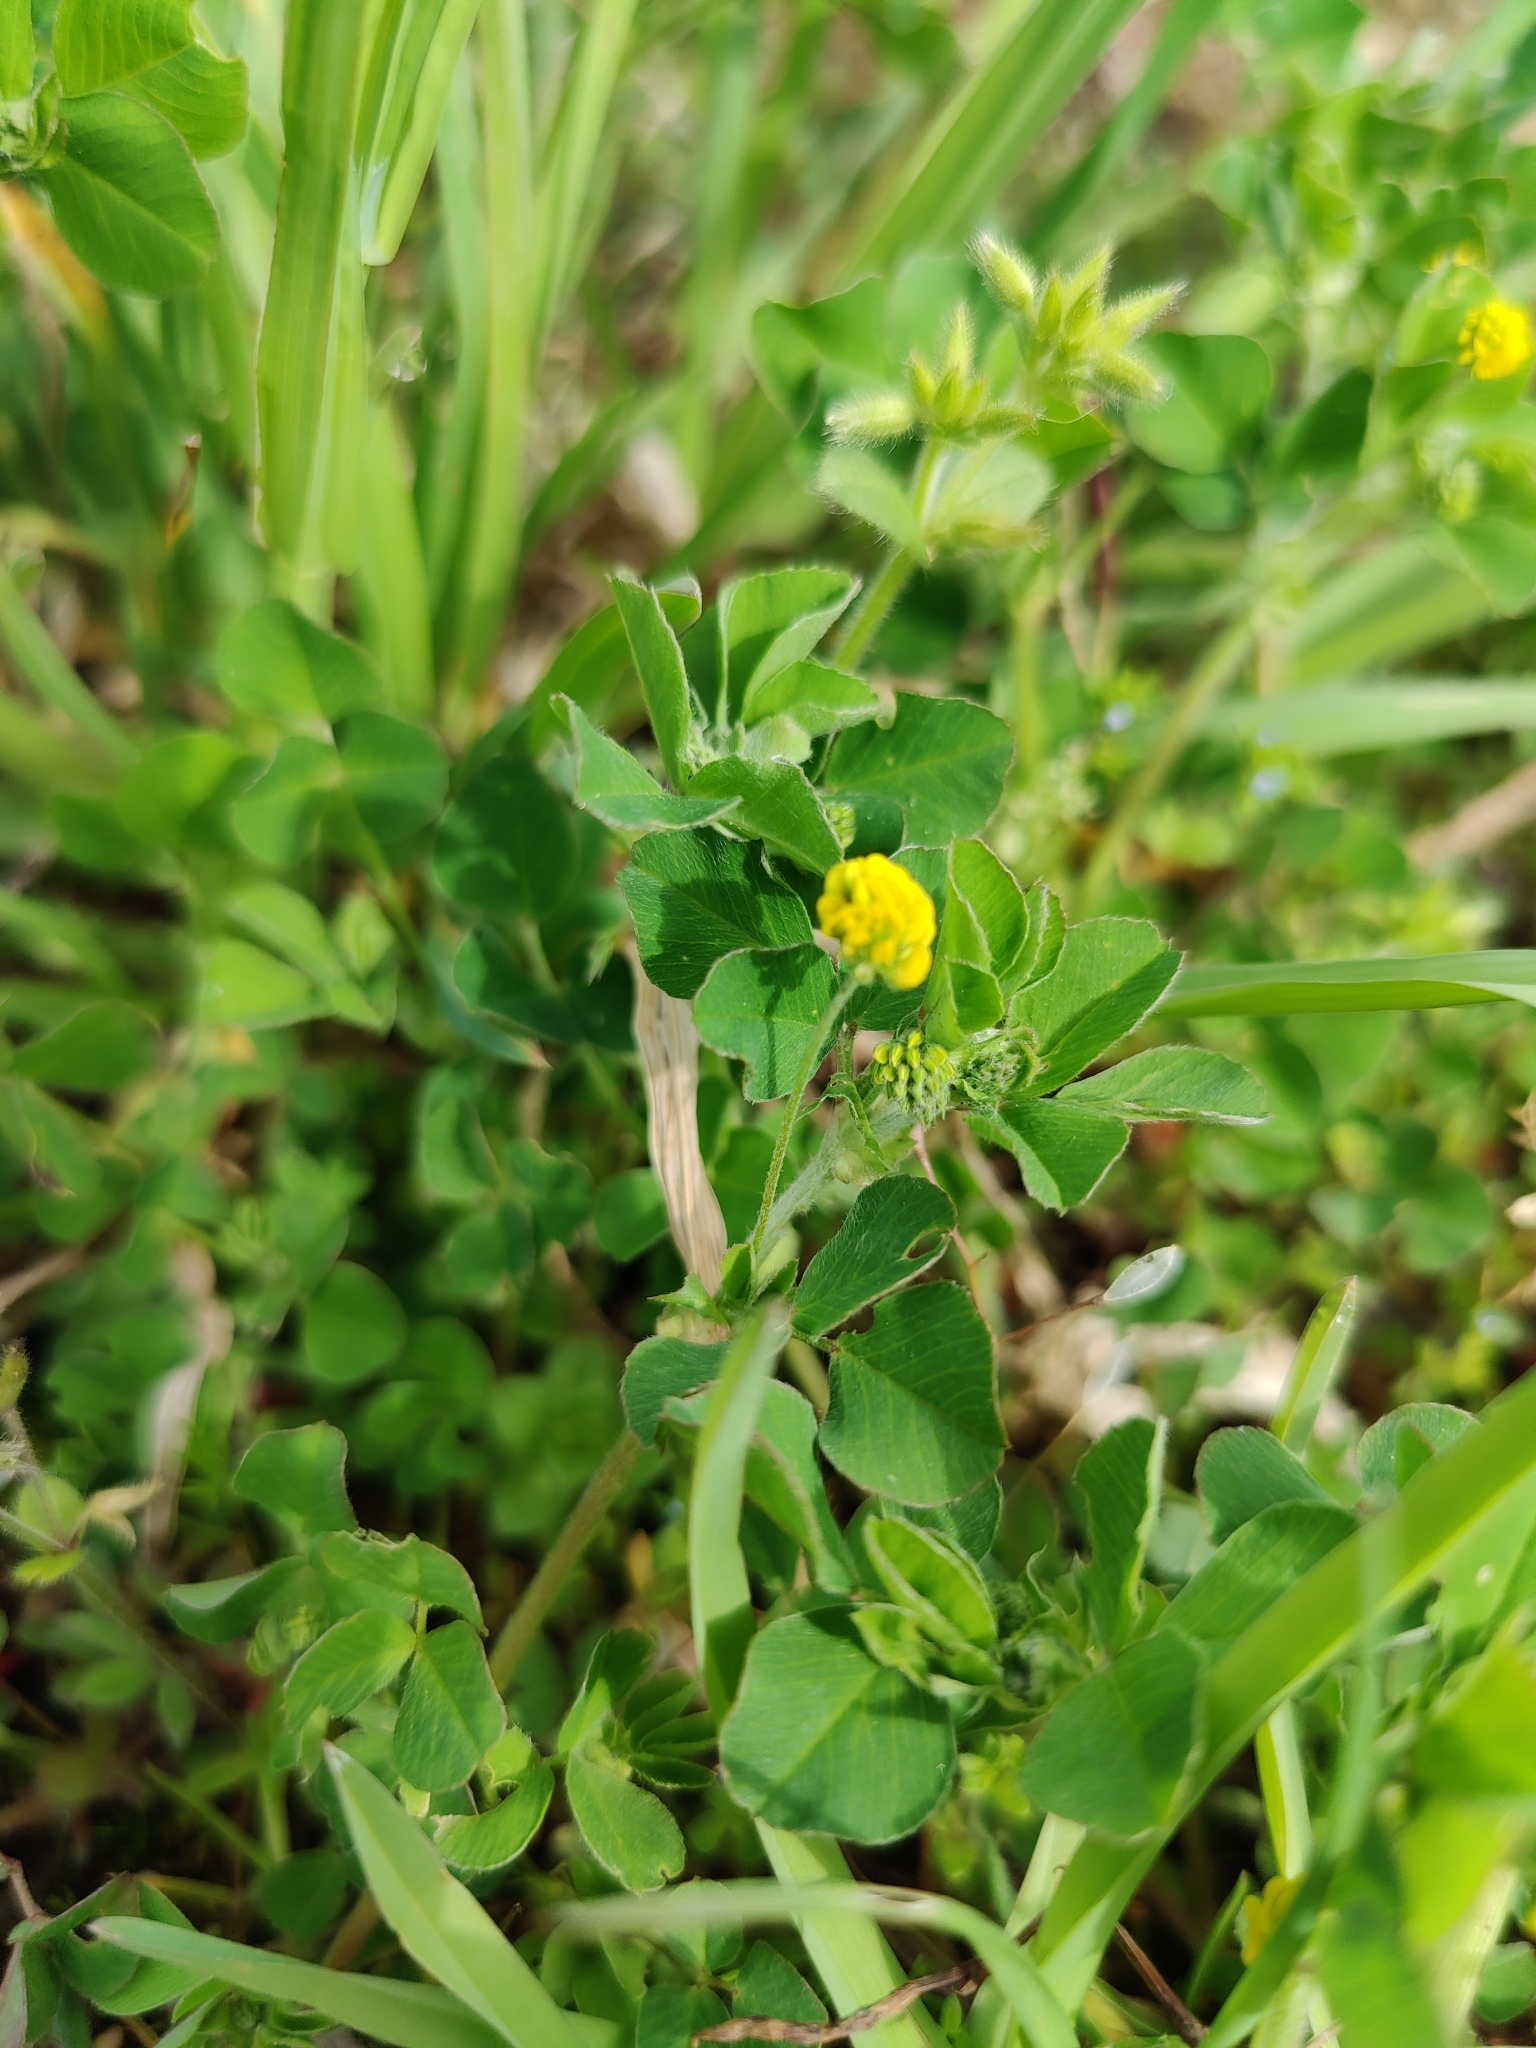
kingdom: Plantae
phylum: Tracheophyta
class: Magnoliopsida
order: Fabales
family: Fabaceae
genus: Medicago
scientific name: Medicago lupulina
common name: Black medick
